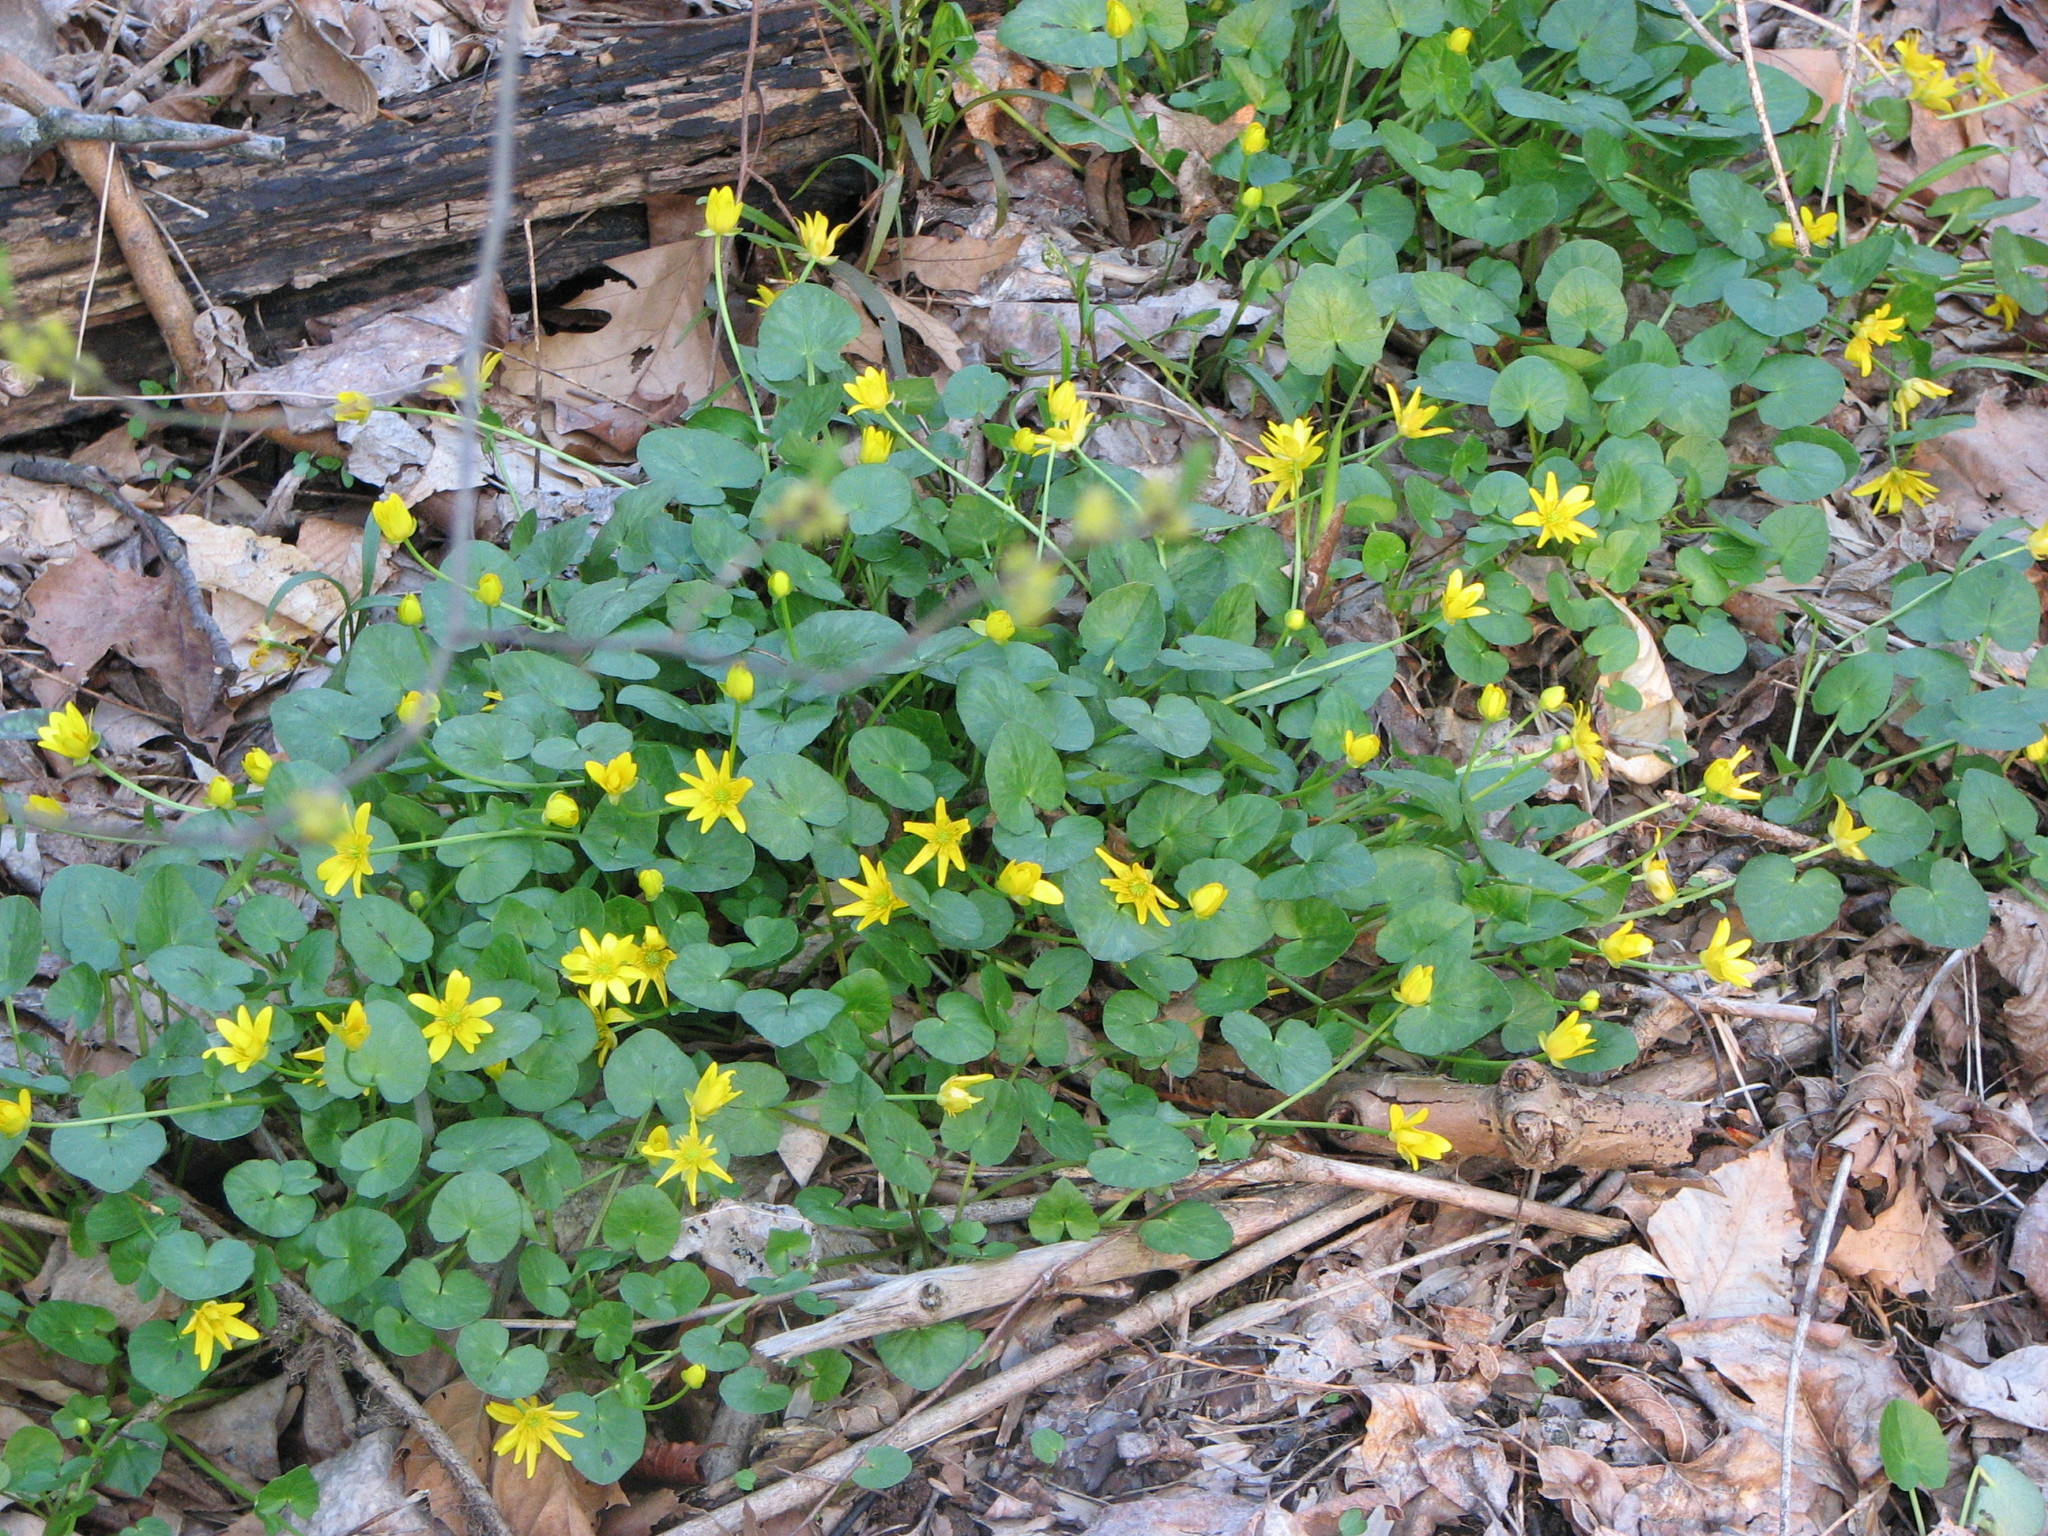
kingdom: Plantae
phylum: Tracheophyta
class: Magnoliopsida
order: Ranunculales
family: Ranunculaceae
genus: Ficaria
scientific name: Ficaria verna
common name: Lesser celandine
